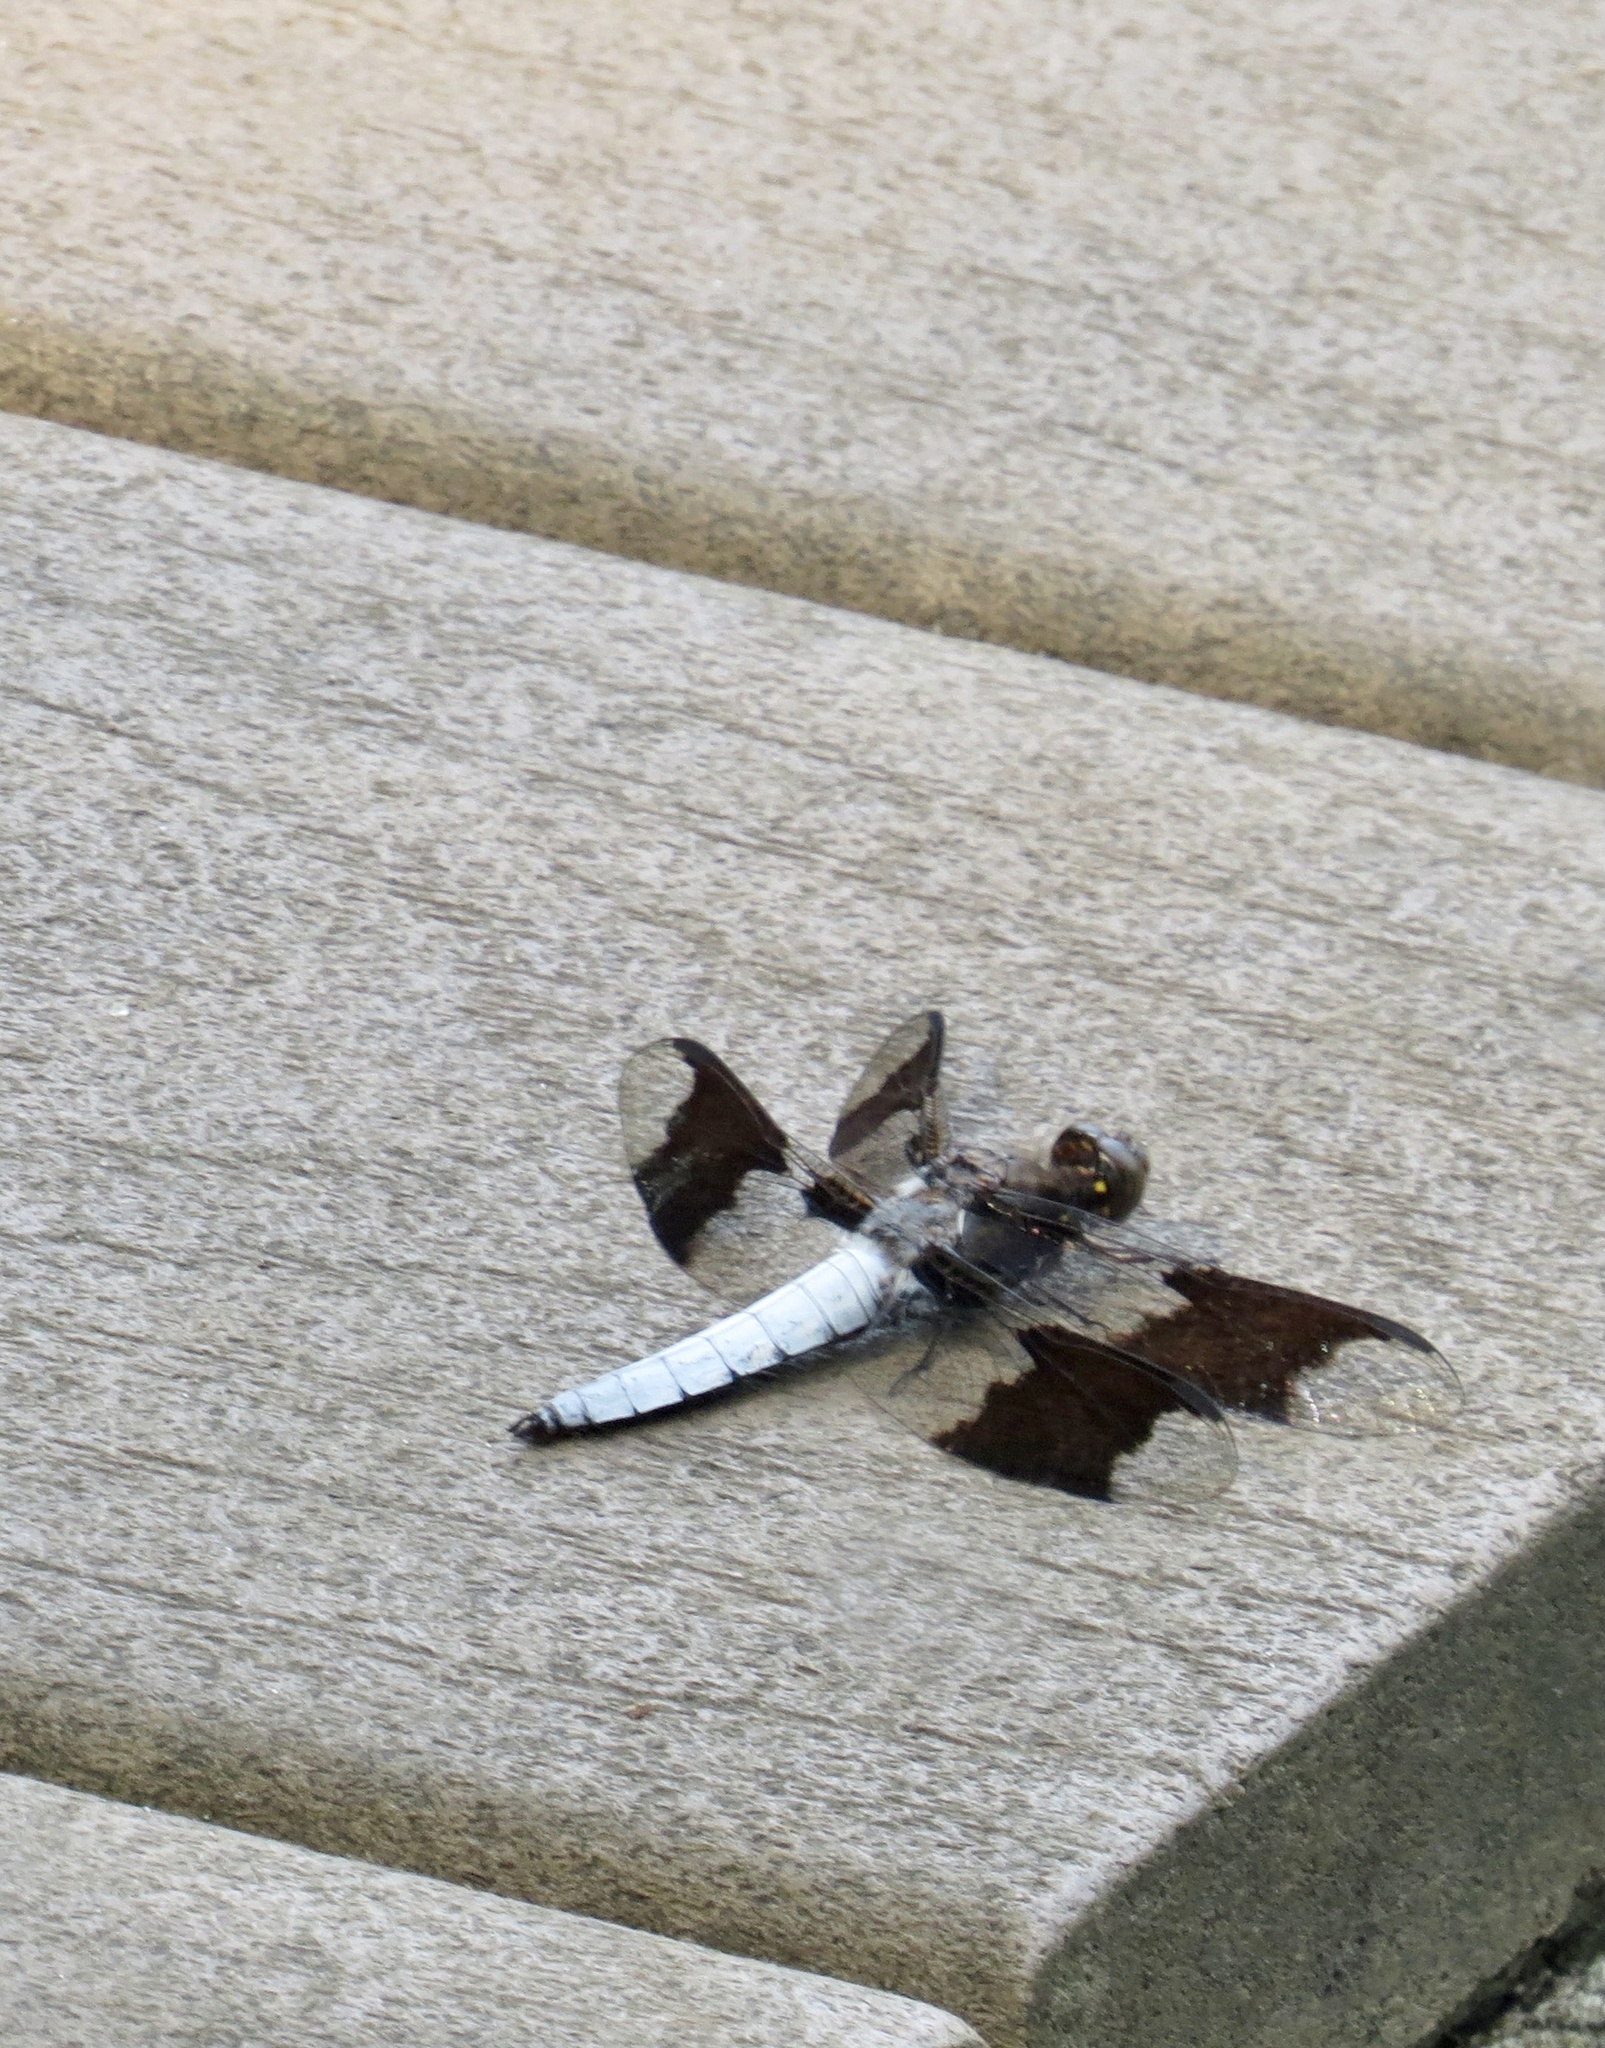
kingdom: Animalia
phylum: Arthropoda
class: Insecta
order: Odonata
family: Libellulidae
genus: Plathemis
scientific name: Plathemis lydia
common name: Common whitetail
